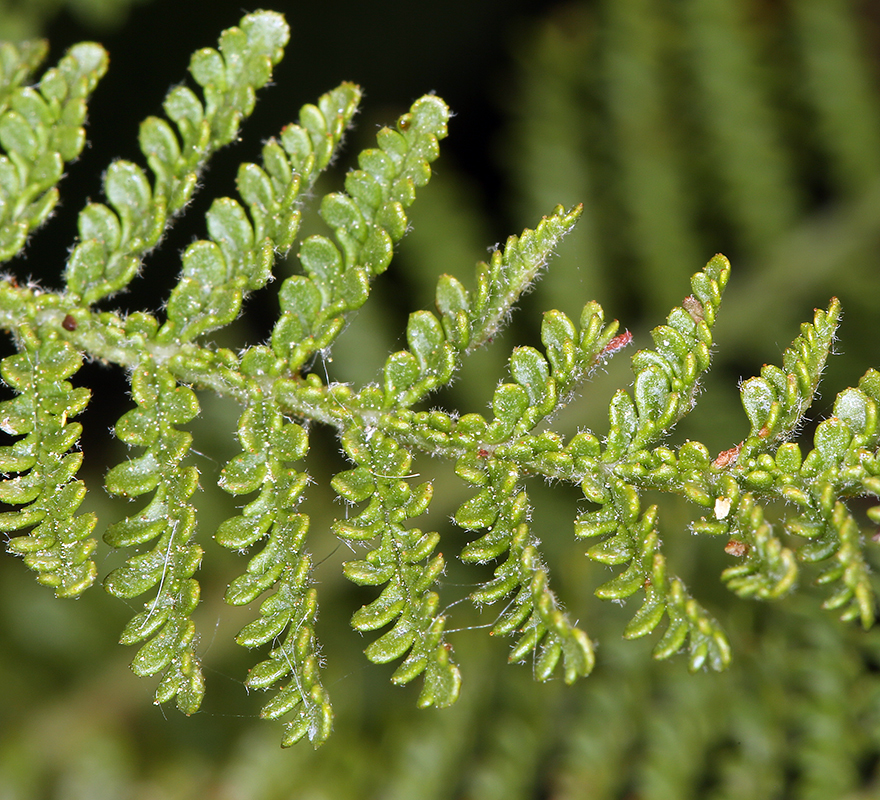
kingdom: Plantae
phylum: Tracheophyta
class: Magnoliopsida
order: Rosales
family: Rosaceae
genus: Chamaebatiaria
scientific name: Chamaebatiaria millefolium
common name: Fernbush
